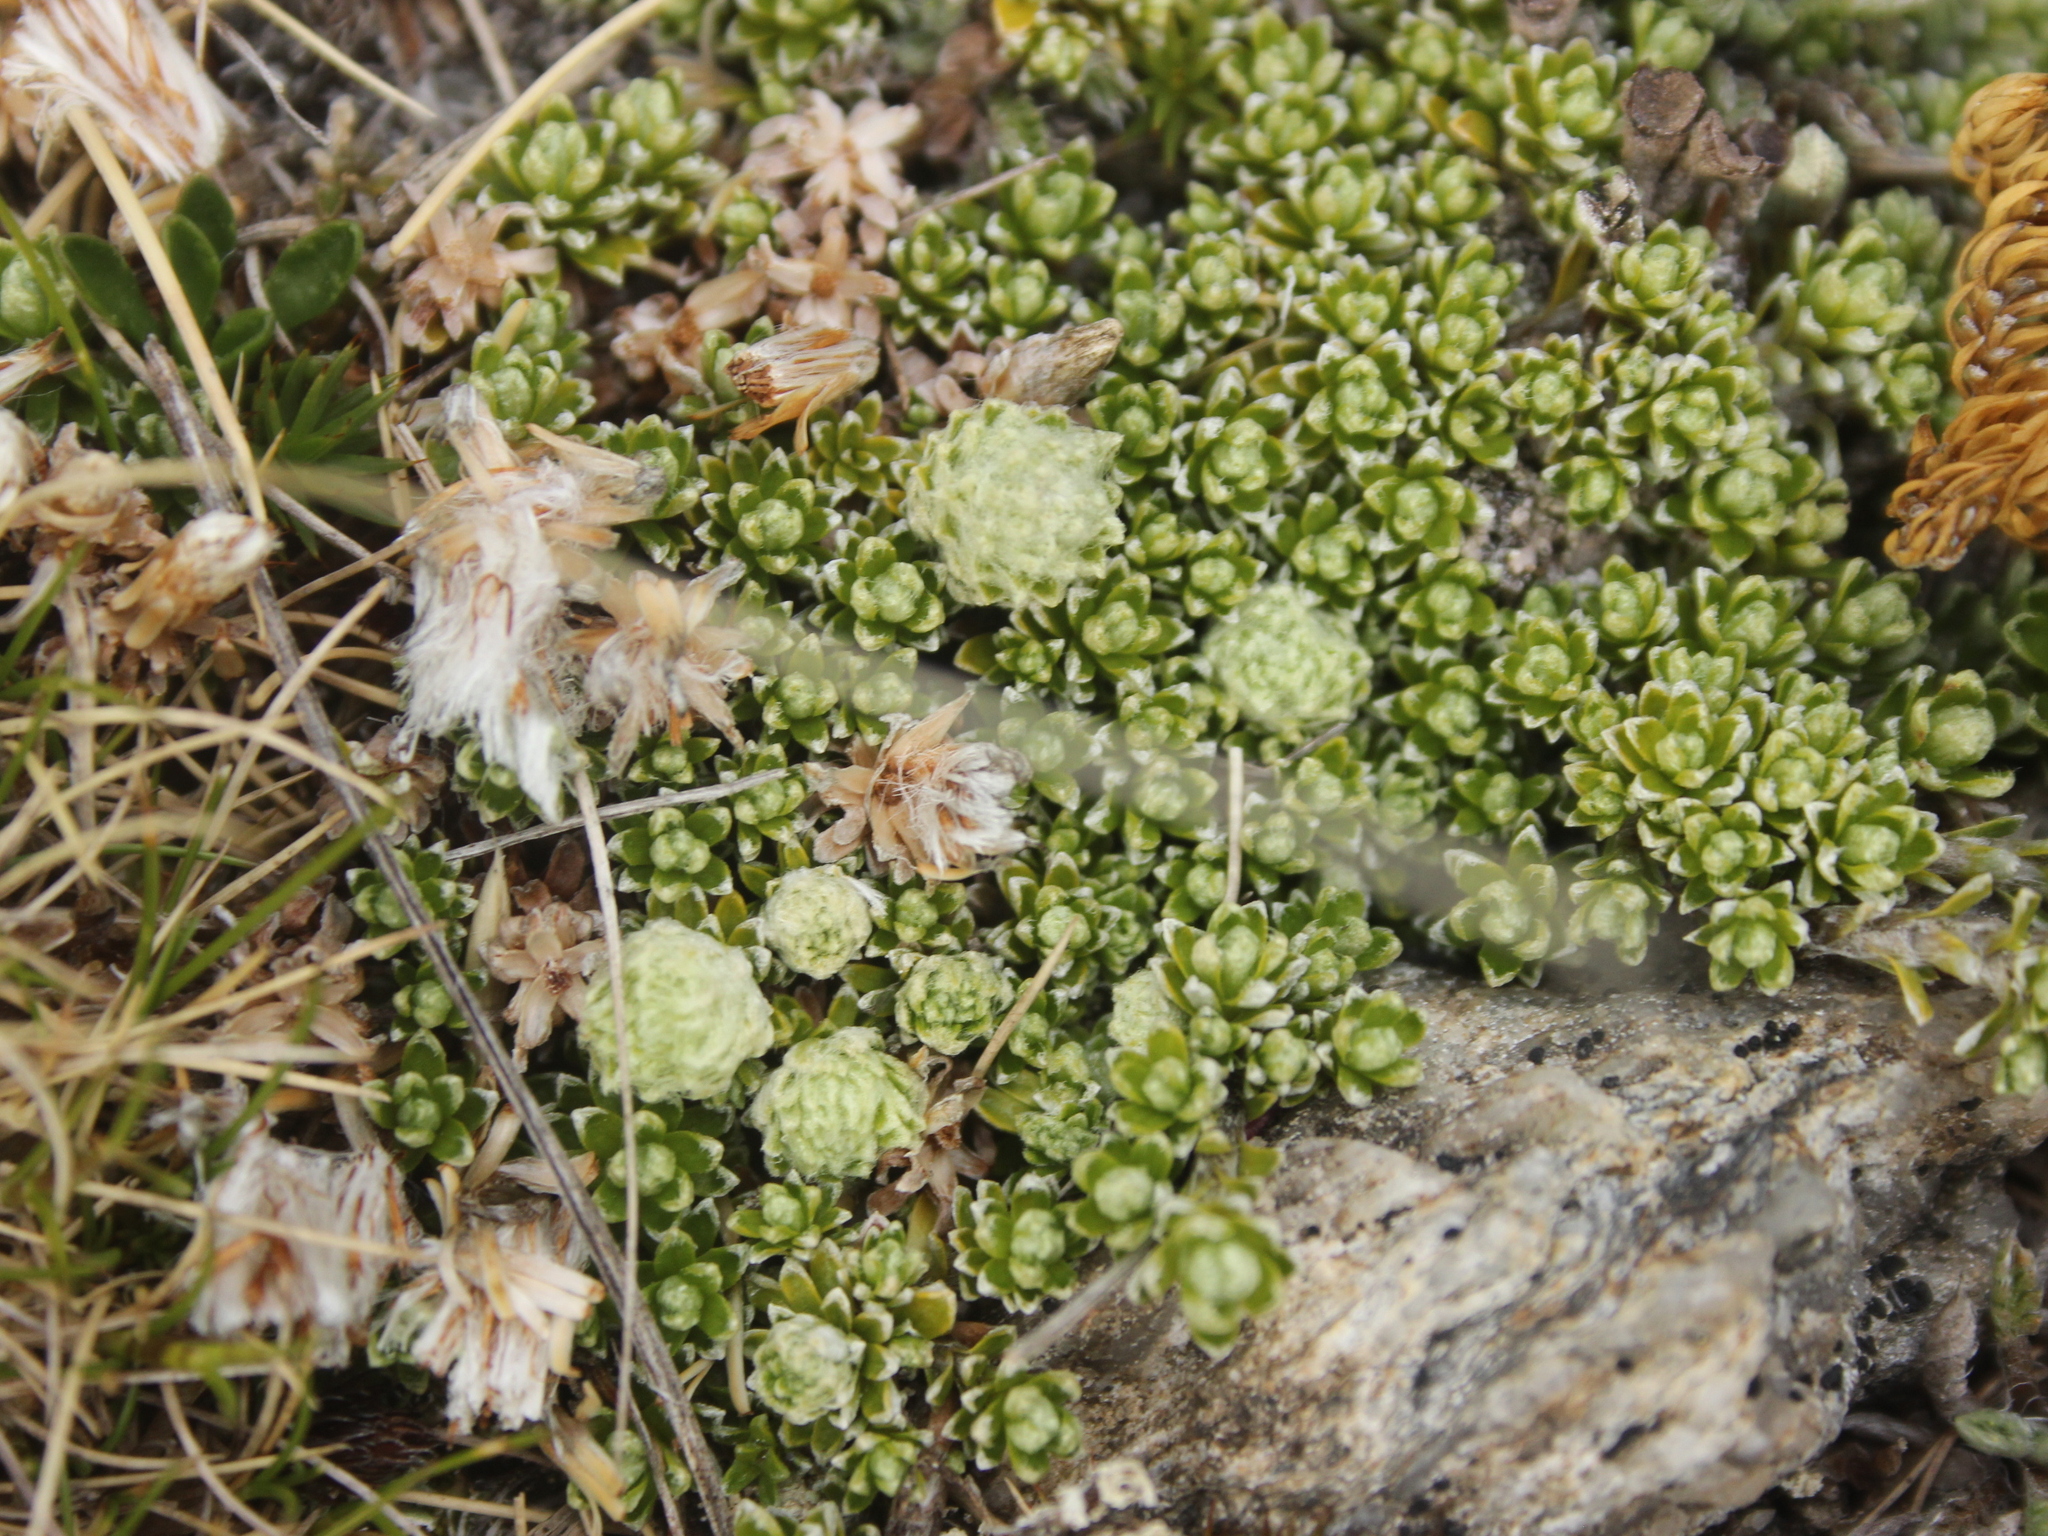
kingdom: Plantae
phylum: Tracheophyta
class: Magnoliopsida
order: Asterales
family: Asteraceae
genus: Raoulia
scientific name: Raoulia subsericea
